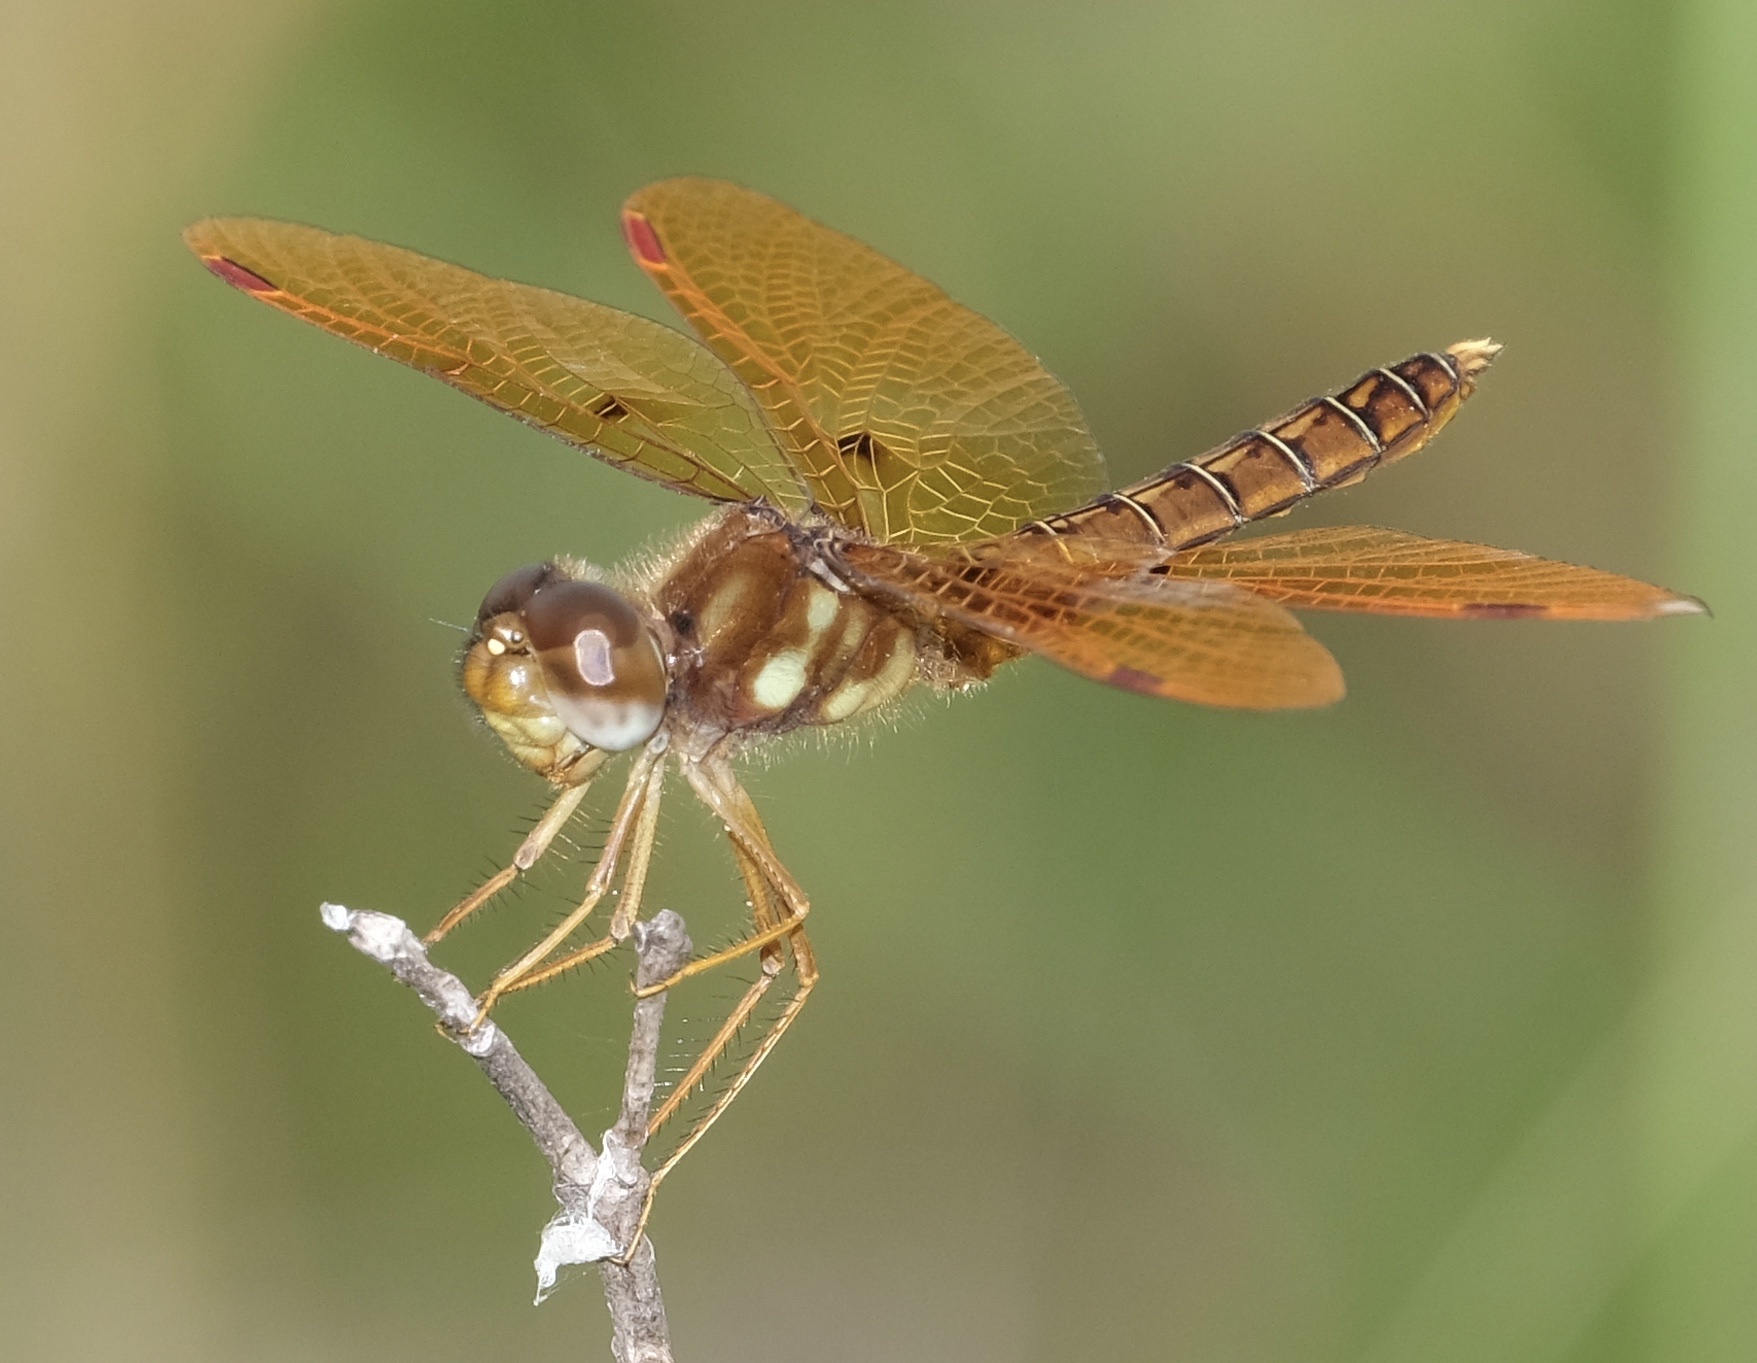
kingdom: Animalia
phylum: Arthropoda
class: Insecta
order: Odonata
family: Libellulidae
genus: Perithemis
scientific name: Perithemis tenera
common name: Eastern amberwing
